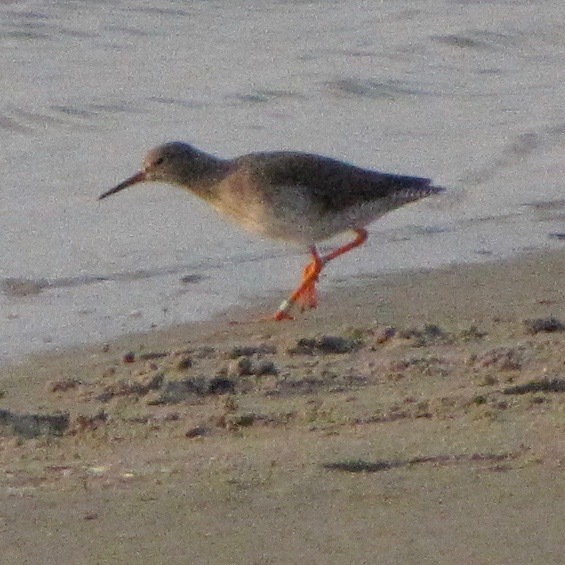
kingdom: Animalia
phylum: Chordata
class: Aves
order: Charadriiformes
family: Scolopacidae
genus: Tringa
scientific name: Tringa totanus
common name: Common redshank
